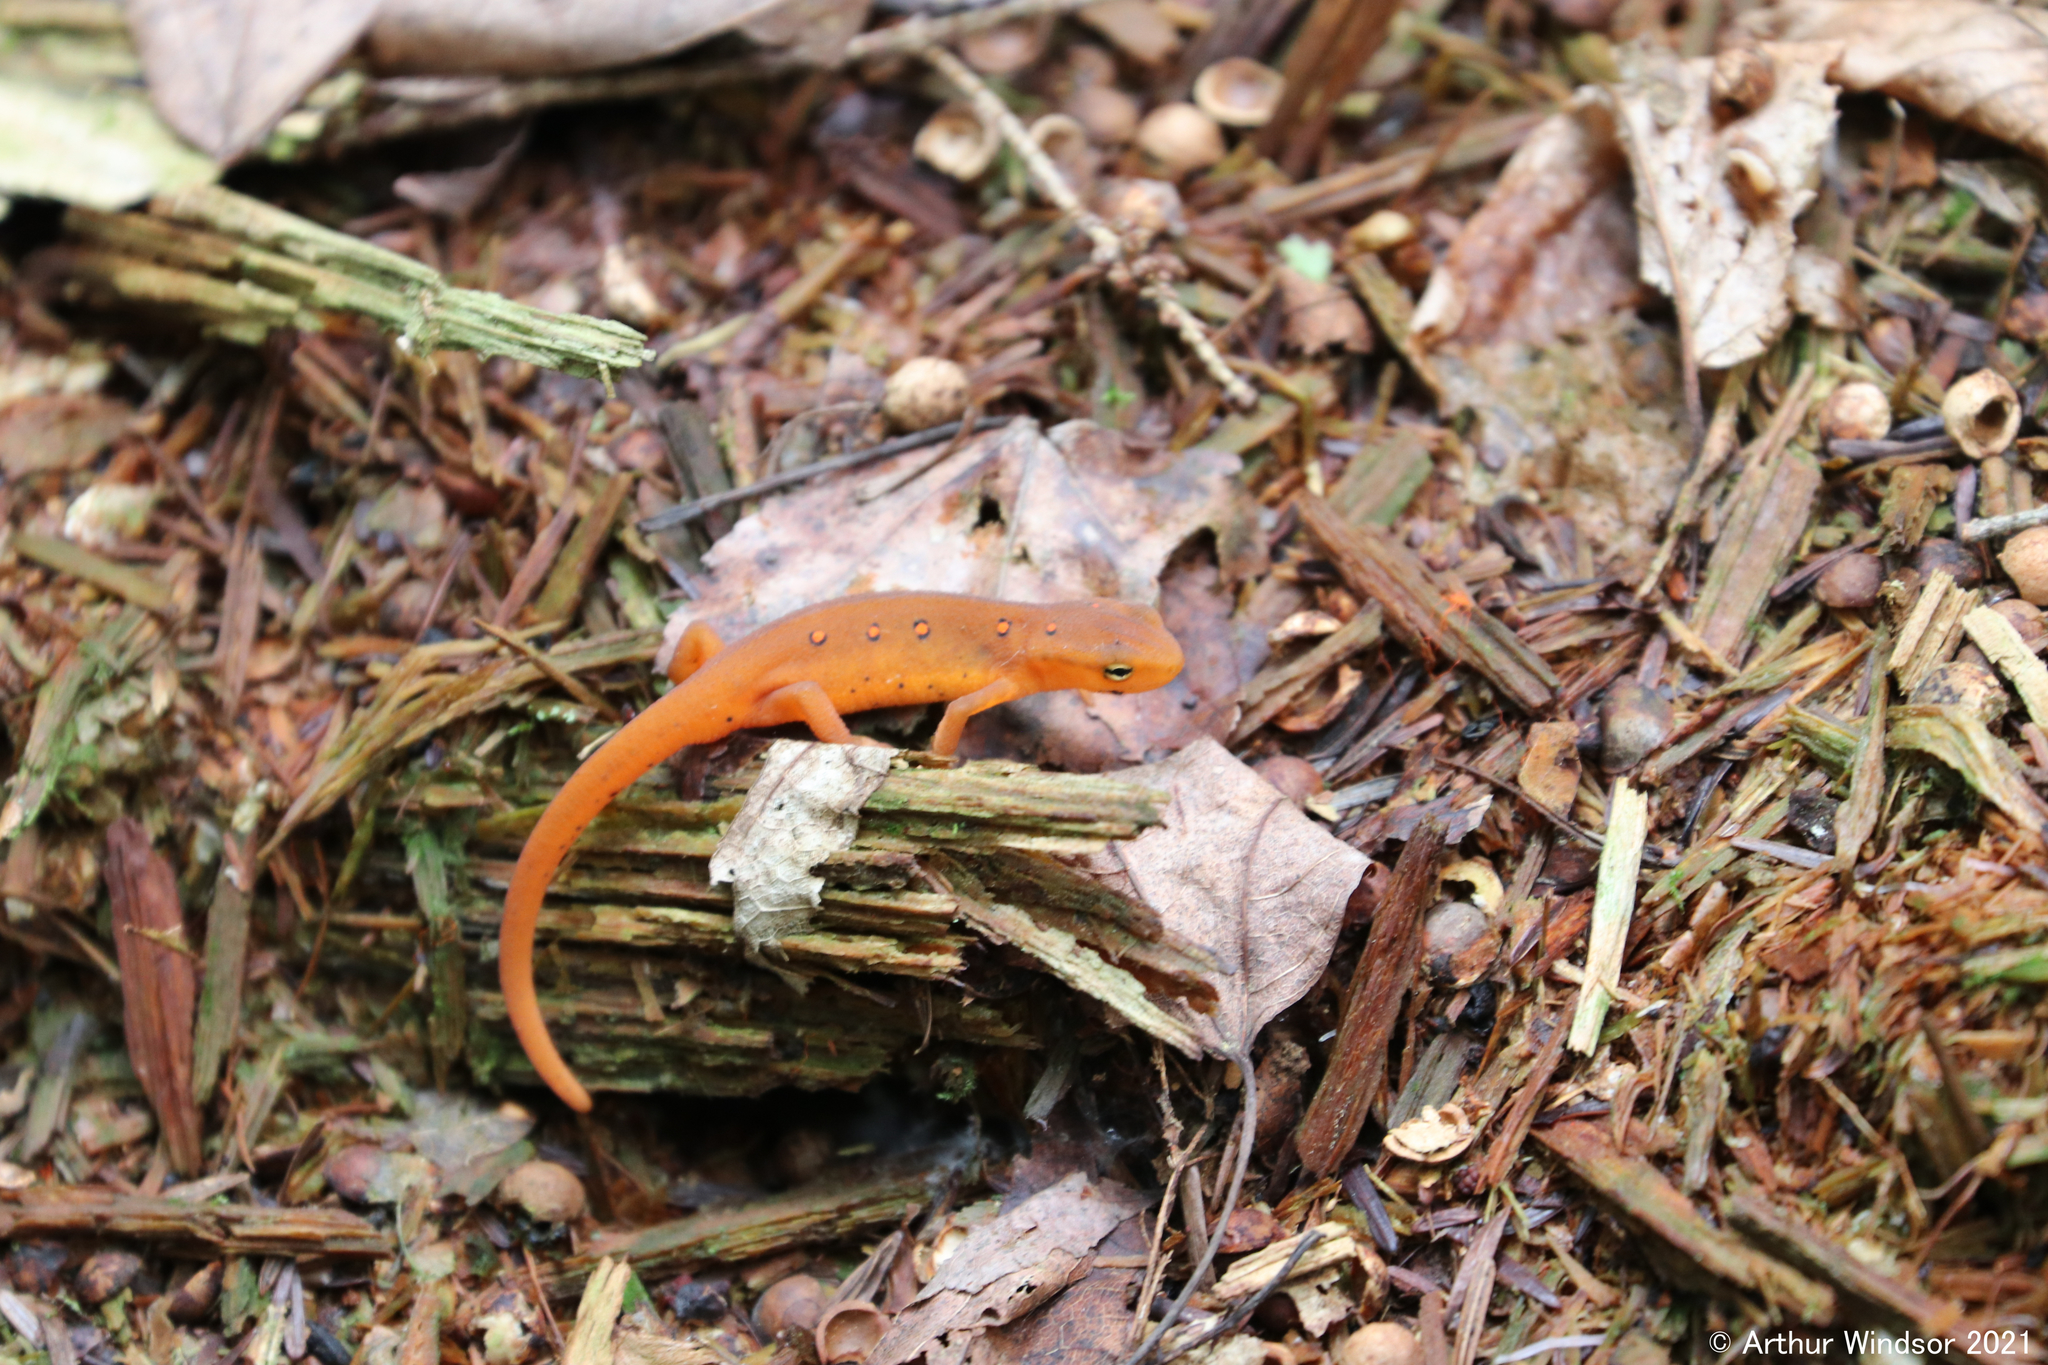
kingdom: Animalia
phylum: Chordata
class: Amphibia
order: Caudata
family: Salamandridae
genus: Notophthalmus
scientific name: Notophthalmus viridescens
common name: Eastern newt
